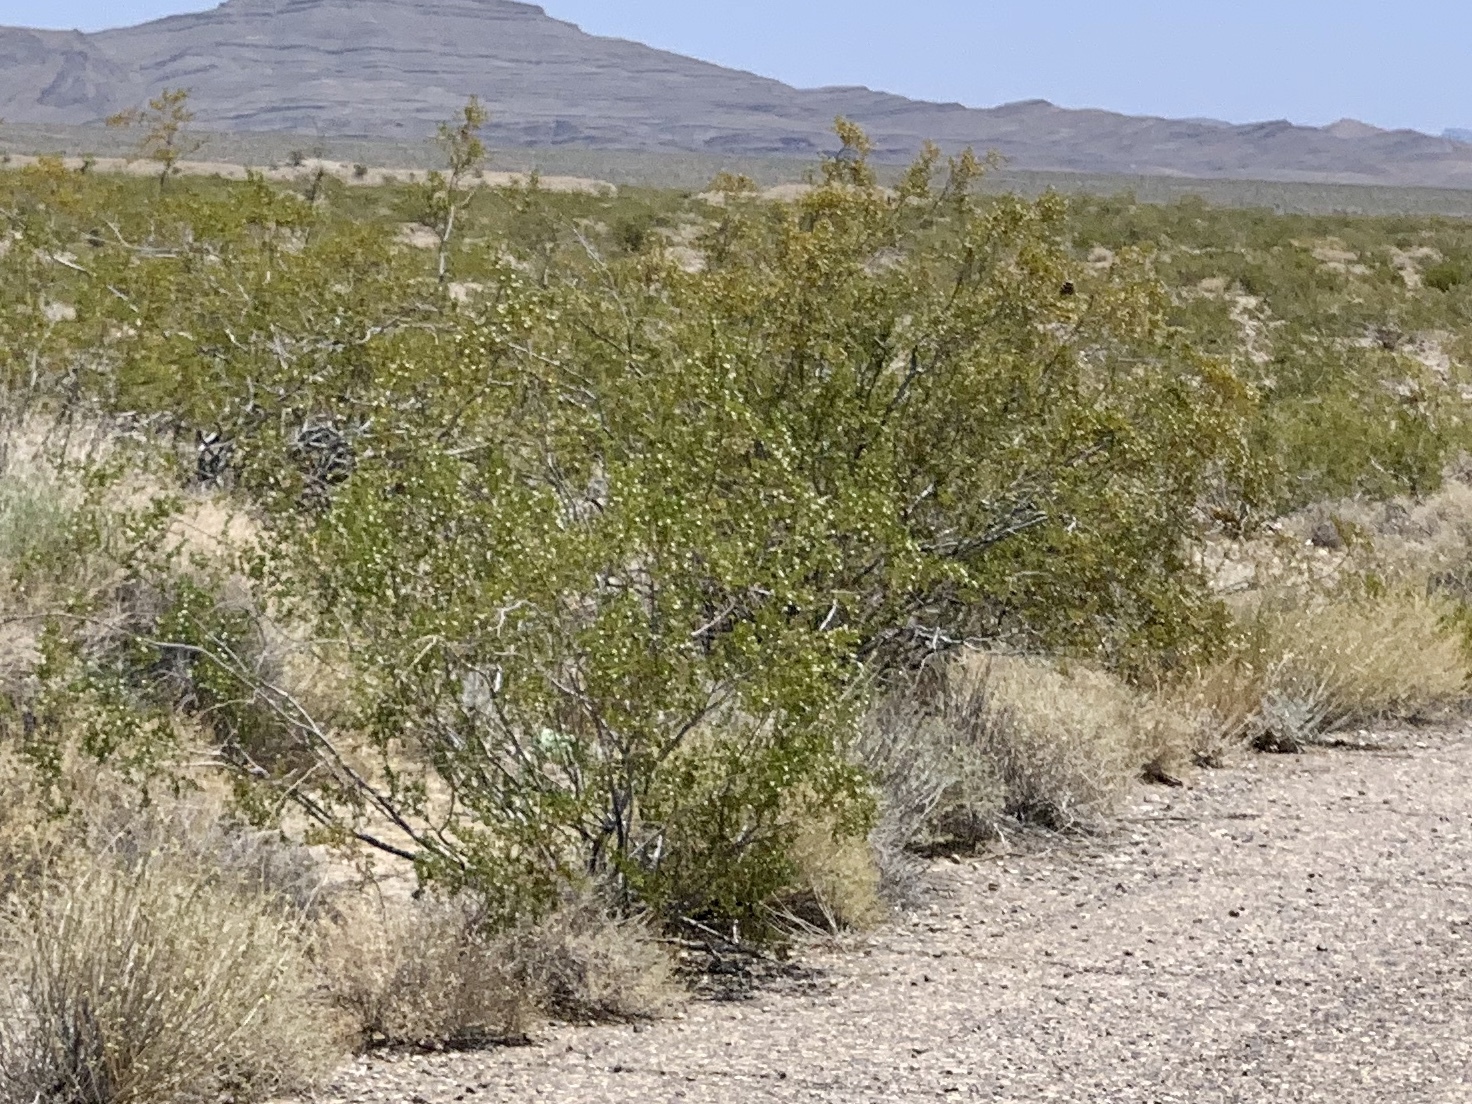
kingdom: Plantae
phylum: Tracheophyta
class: Magnoliopsida
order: Zygophyllales
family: Zygophyllaceae
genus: Larrea
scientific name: Larrea tridentata
